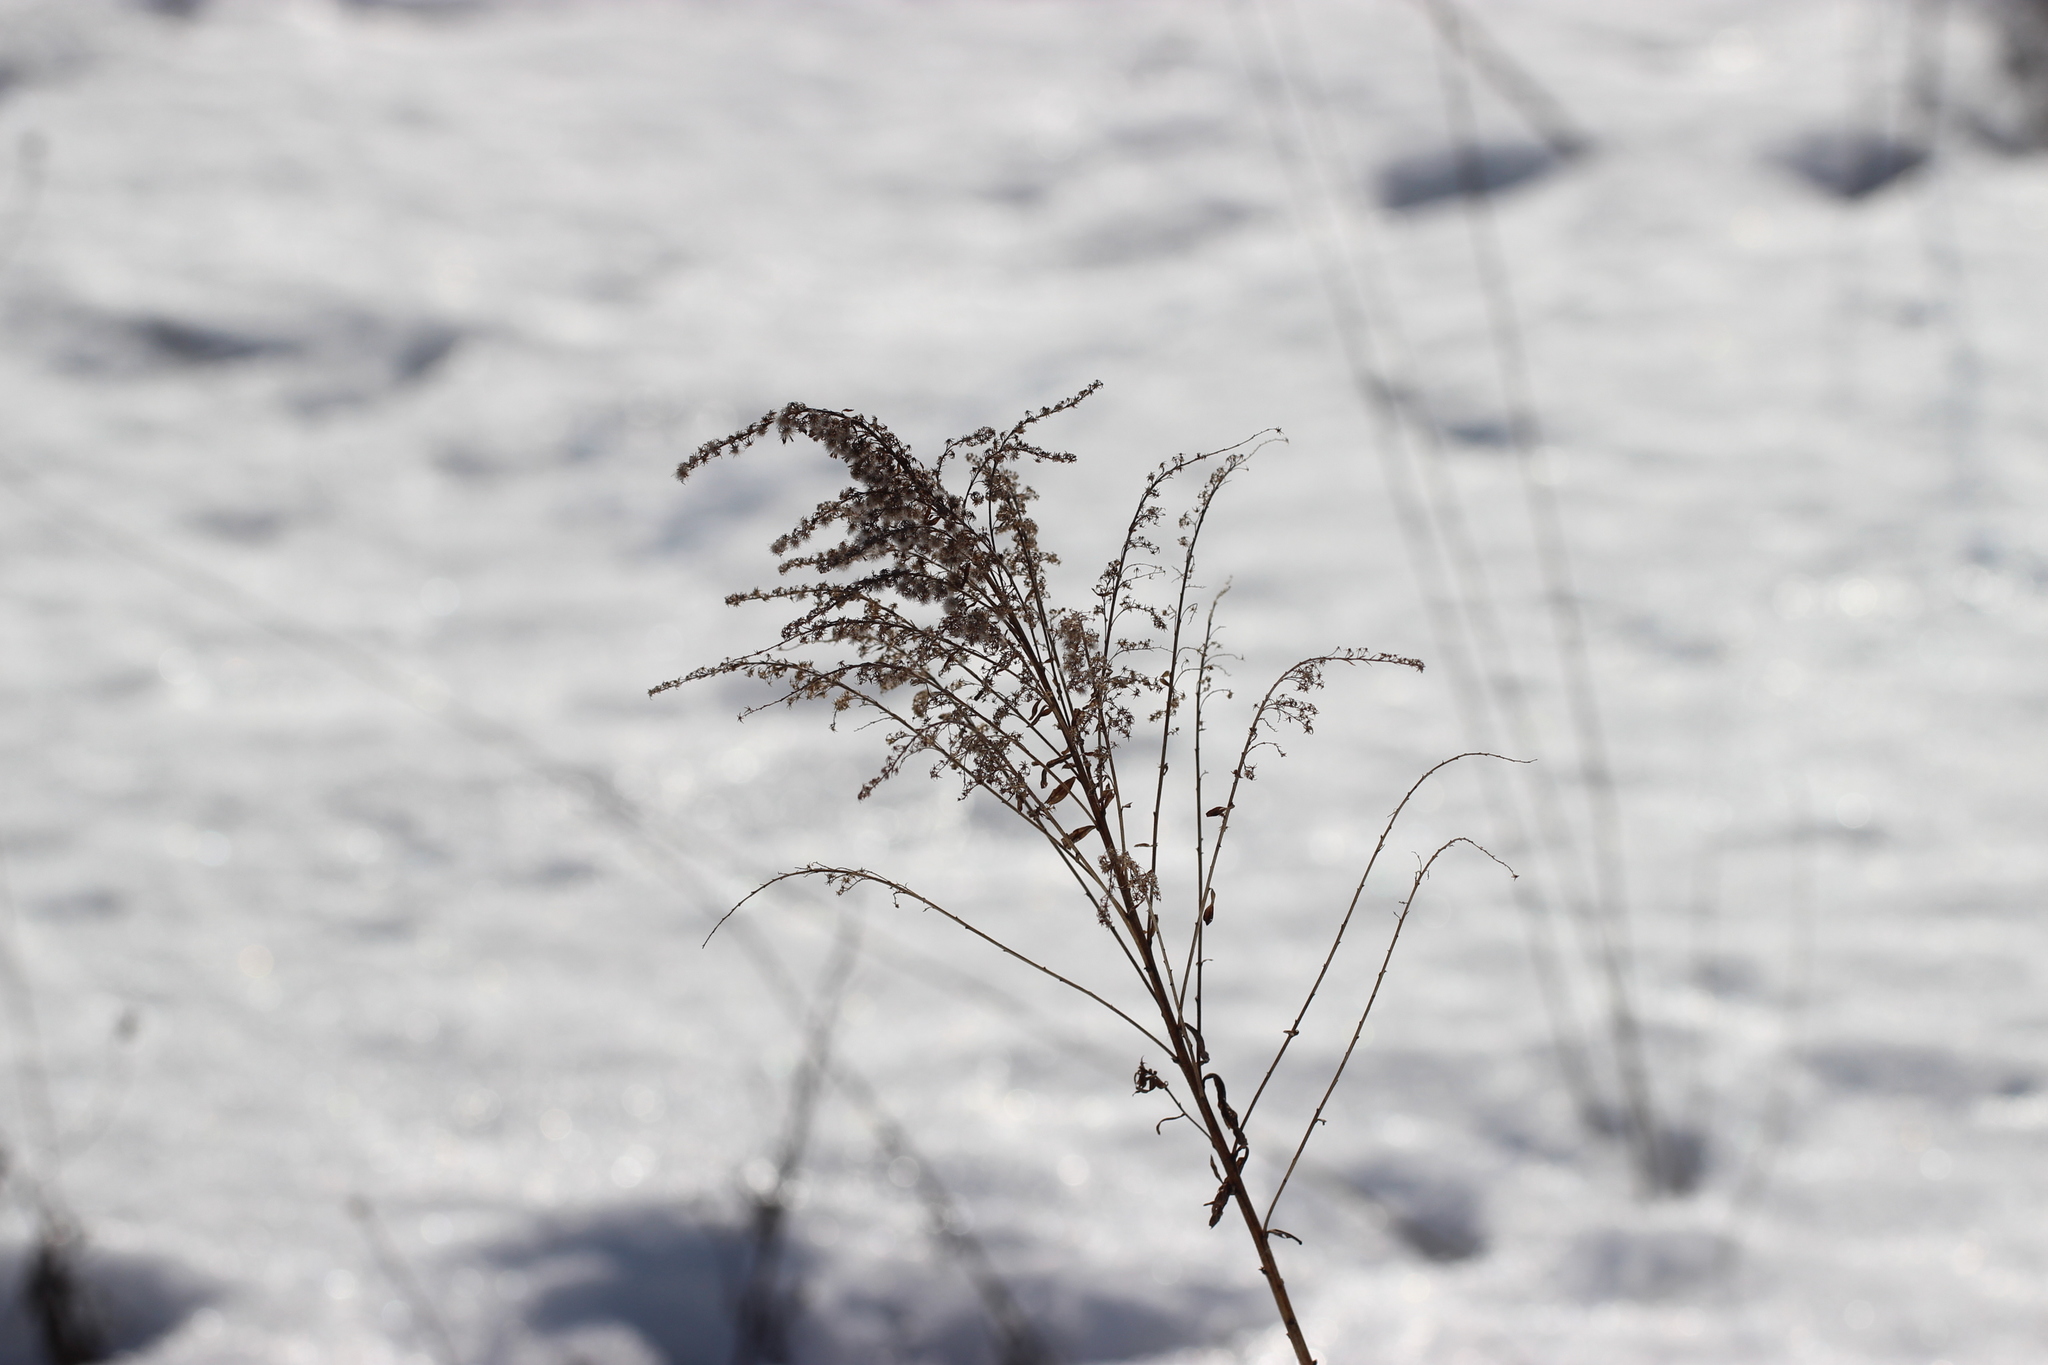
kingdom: Plantae
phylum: Tracheophyta
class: Magnoliopsida
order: Asterales
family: Asteraceae
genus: Solidago
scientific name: Solidago canadensis
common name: Canada goldenrod
